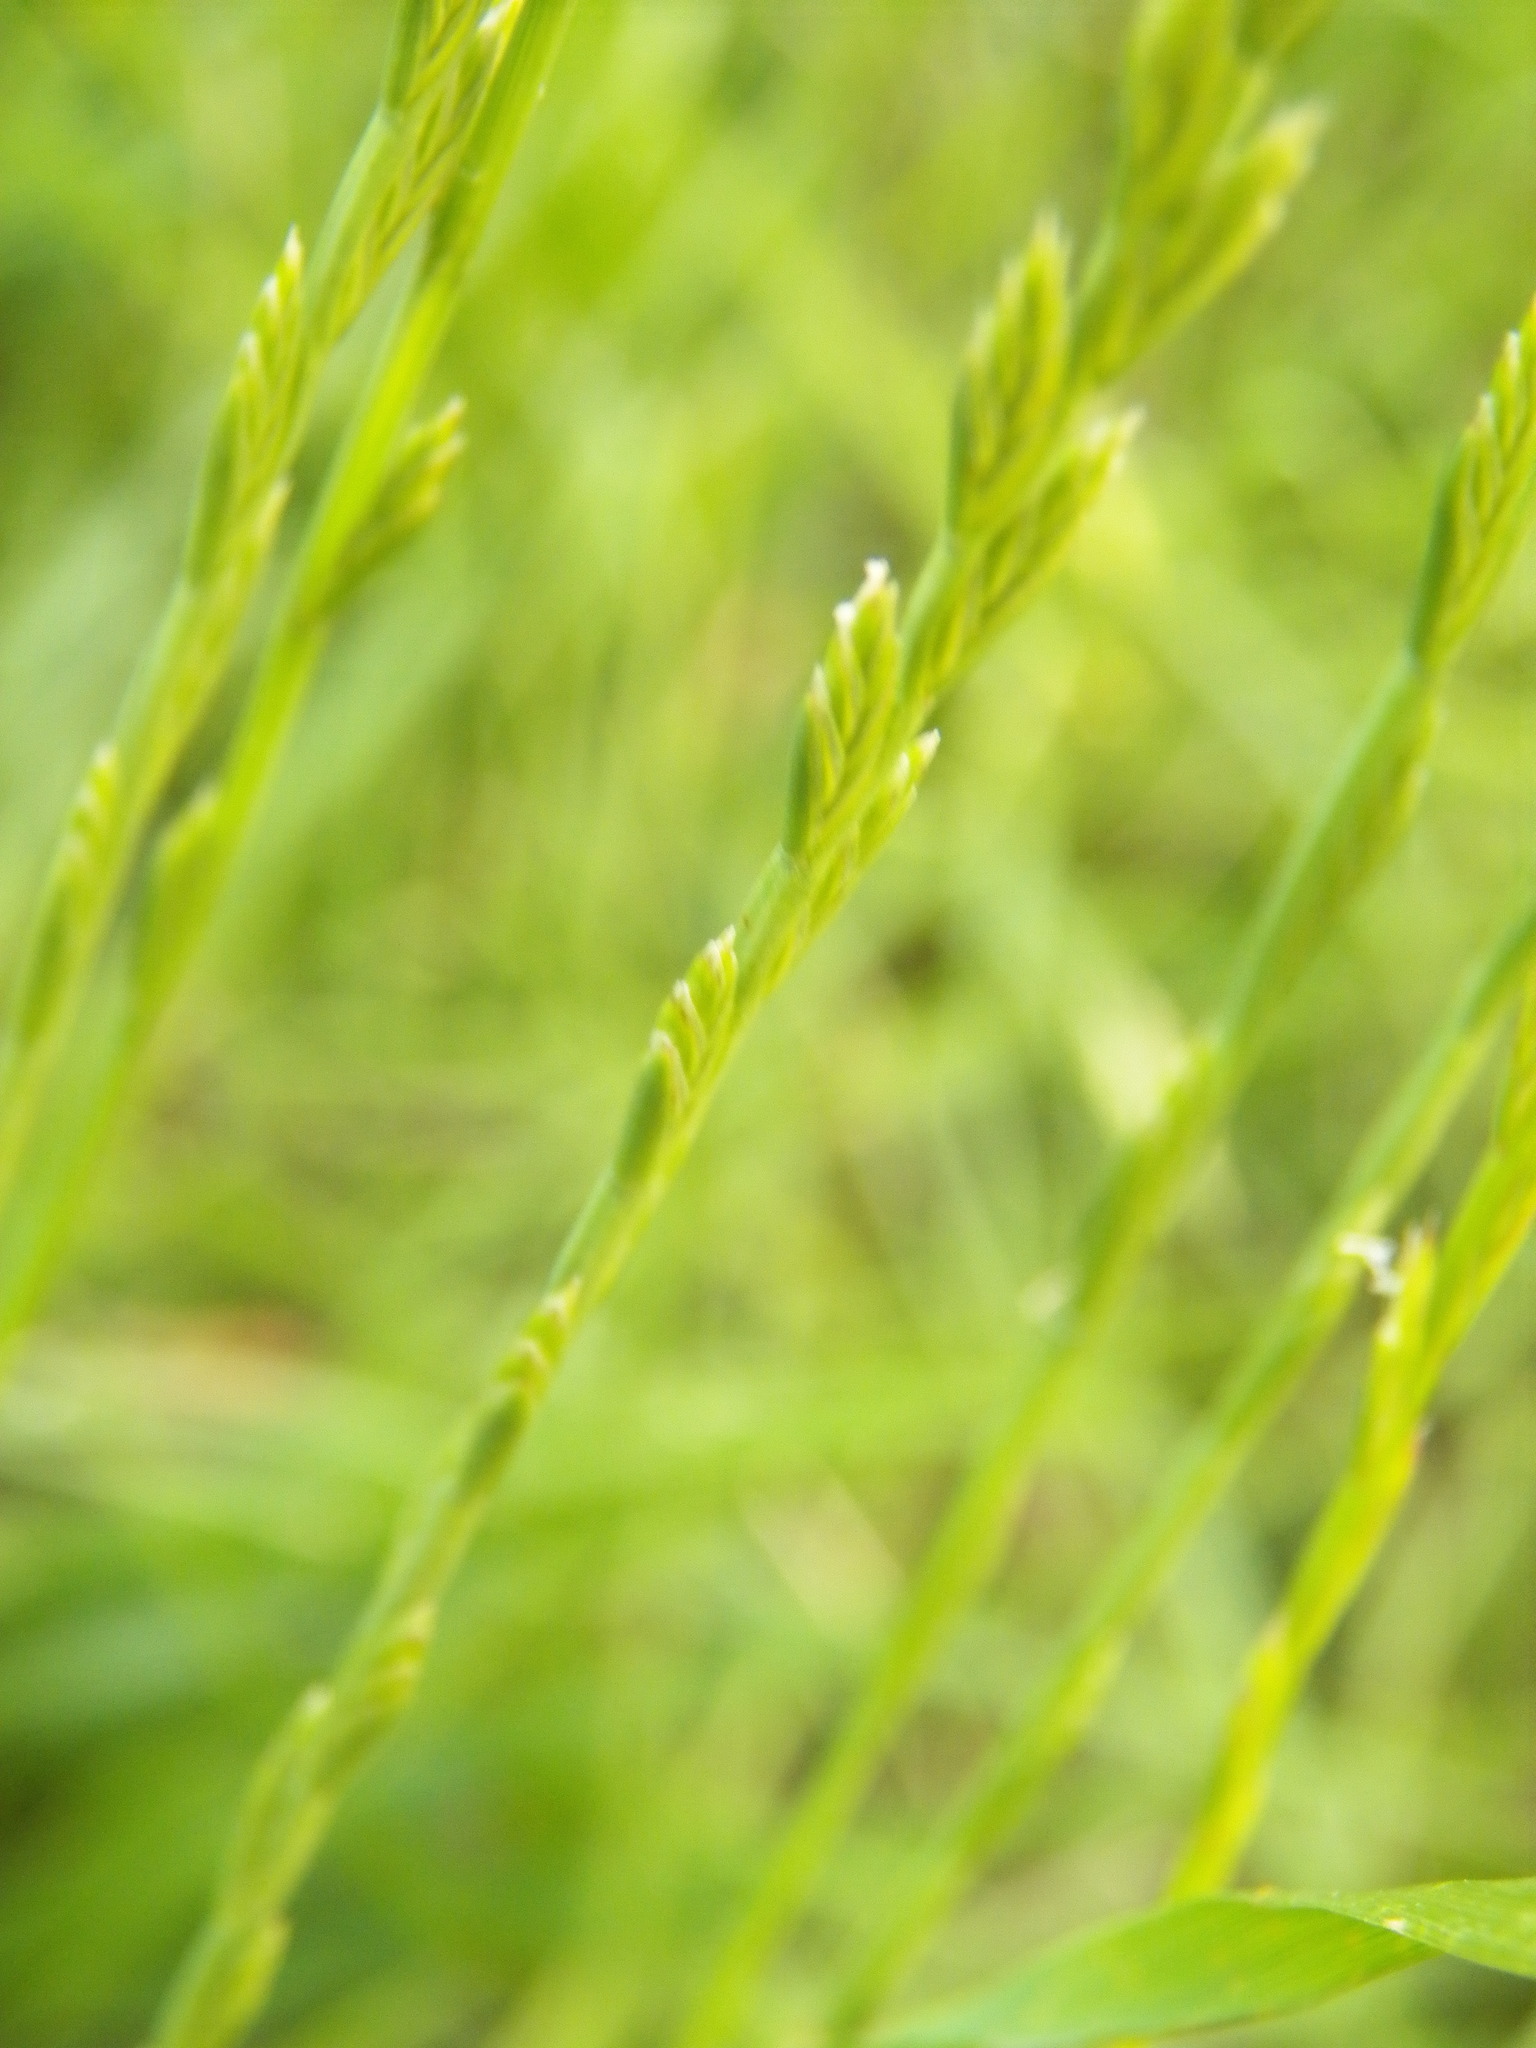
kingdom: Plantae
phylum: Tracheophyta
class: Liliopsida
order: Poales
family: Poaceae
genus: Lolium
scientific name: Lolium multiflorum
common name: Annual ryegrass
